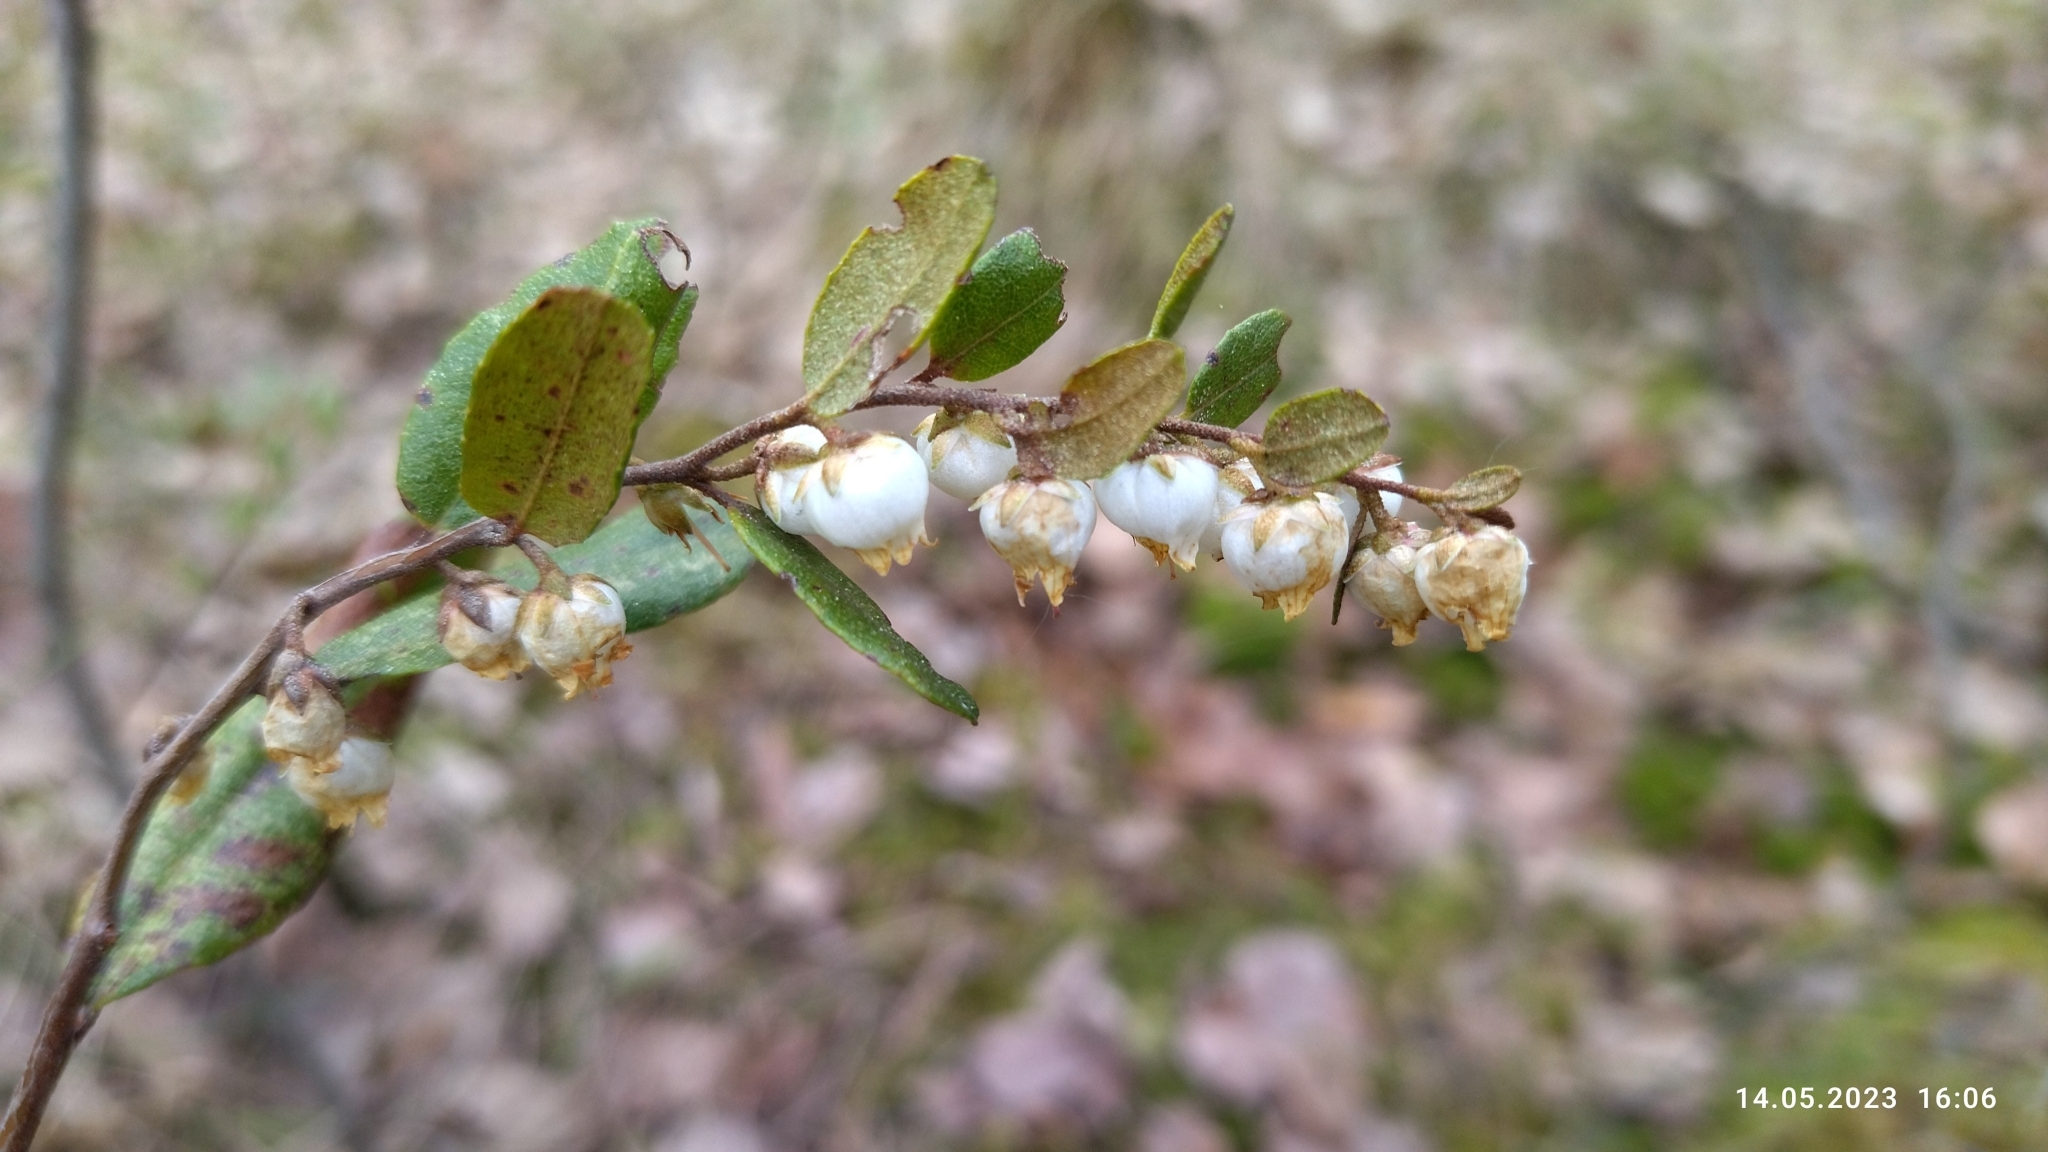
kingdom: Plantae
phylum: Tracheophyta
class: Magnoliopsida
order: Ericales
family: Ericaceae
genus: Chamaedaphne
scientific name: Chamaedaphne calyculata
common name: Leatherleaf
